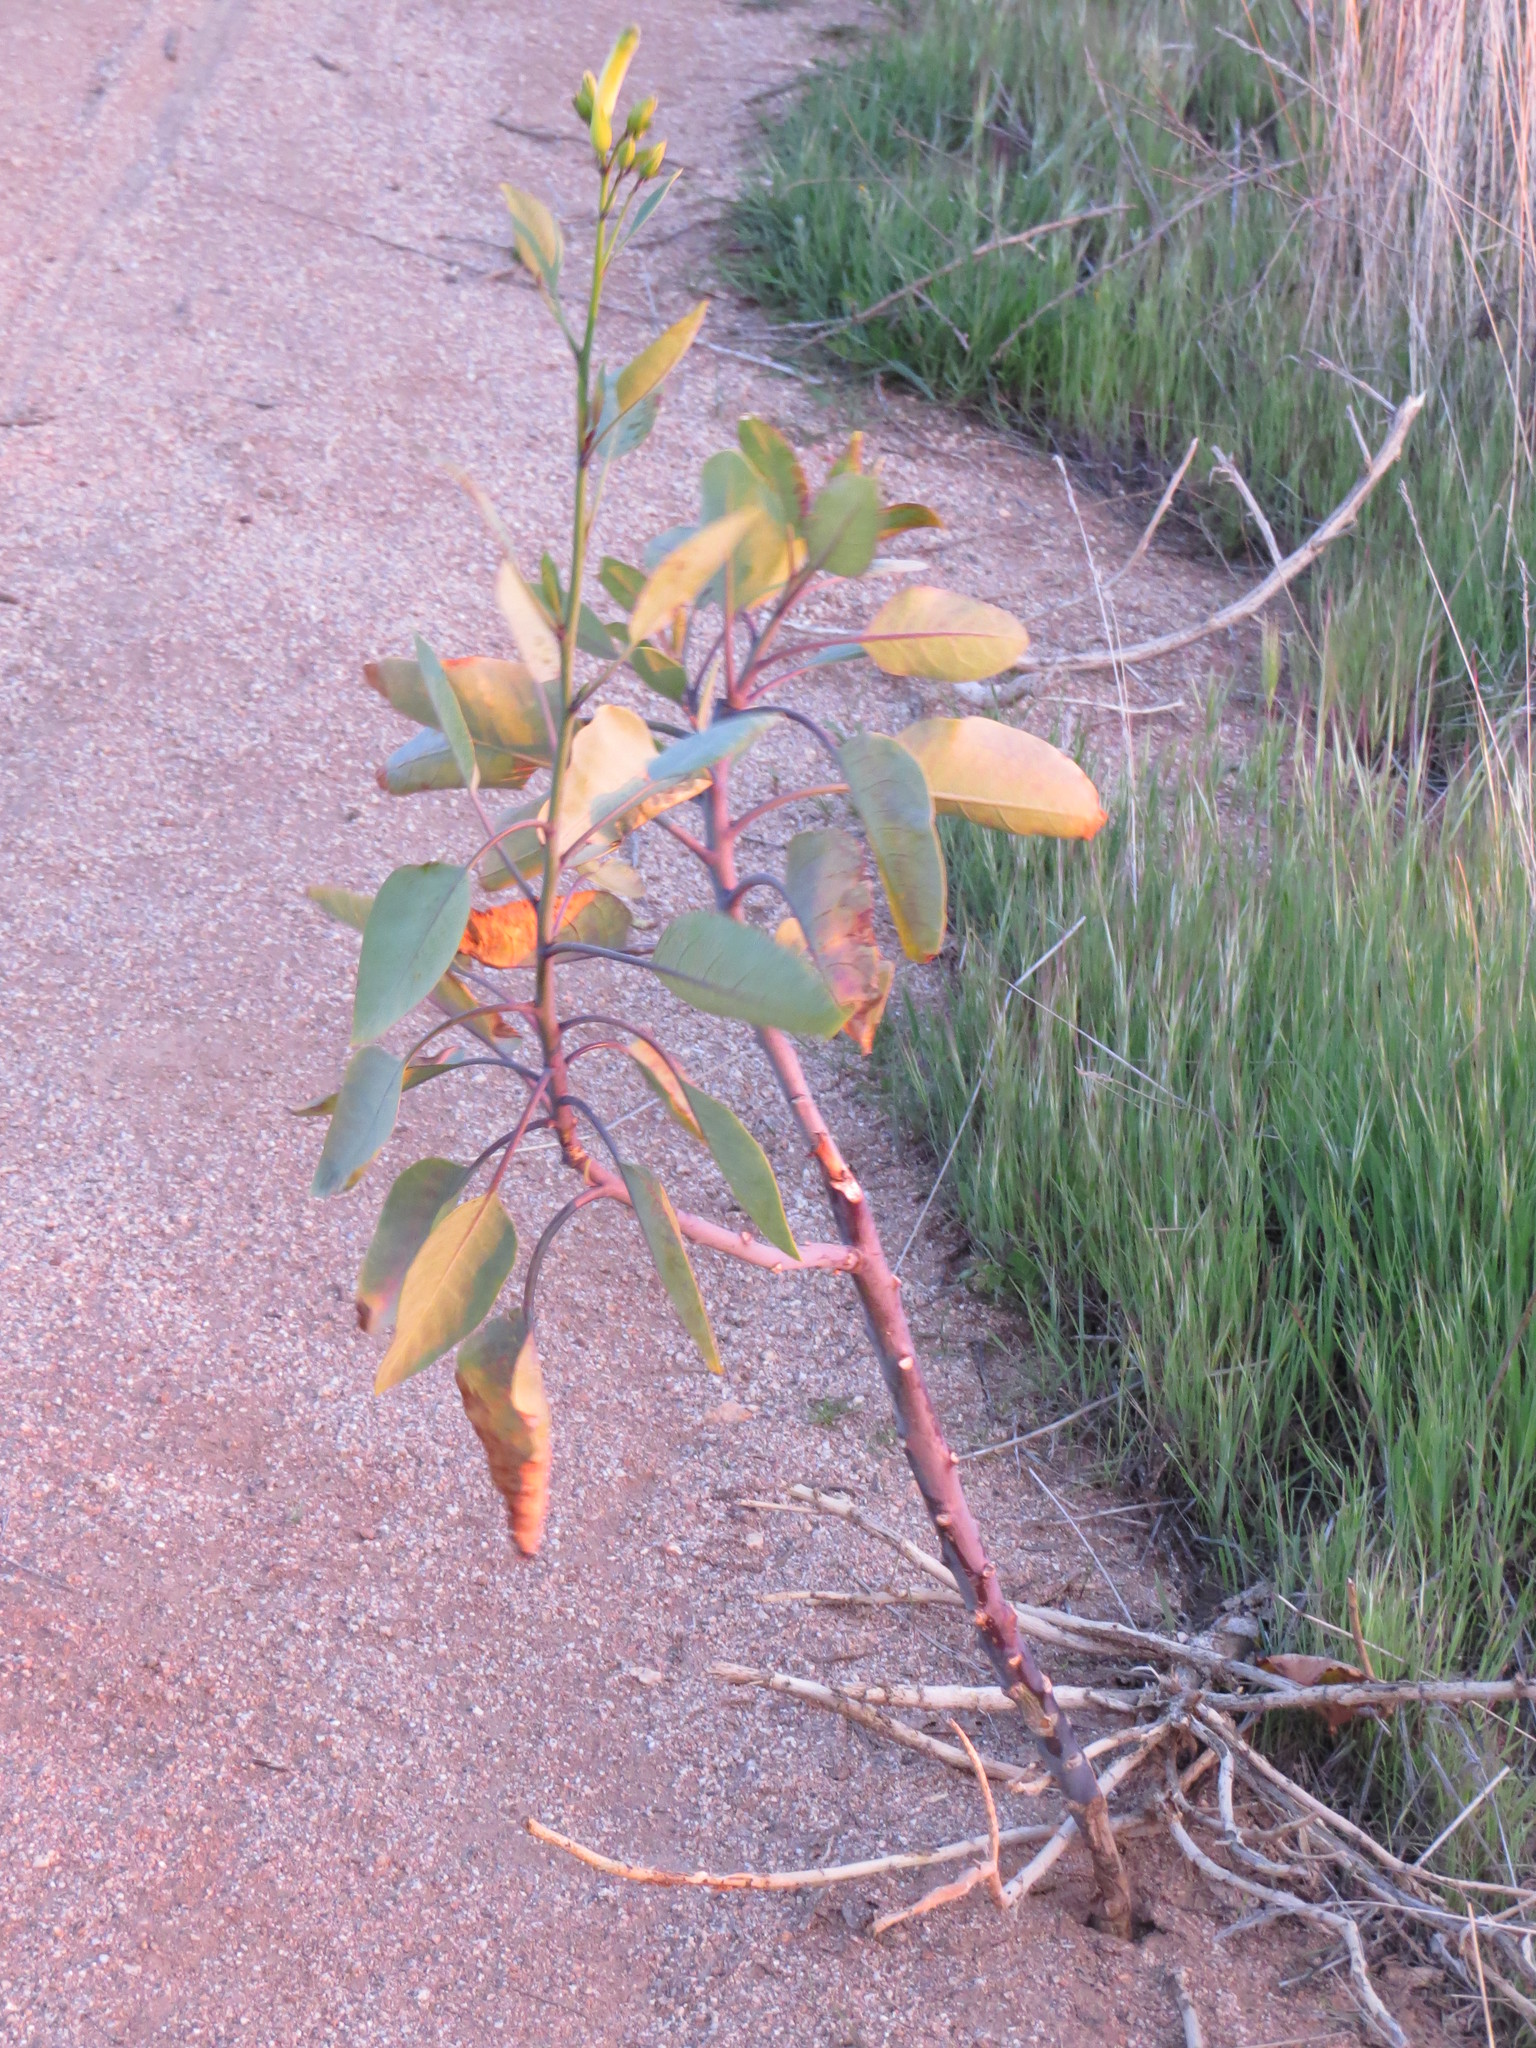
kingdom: Plantae
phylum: Tracheophyta
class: Magnoliopsida
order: Solanales
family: Solanaceae
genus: Nicotiana
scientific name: Nicotiana glauca
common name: Tree tobacco
